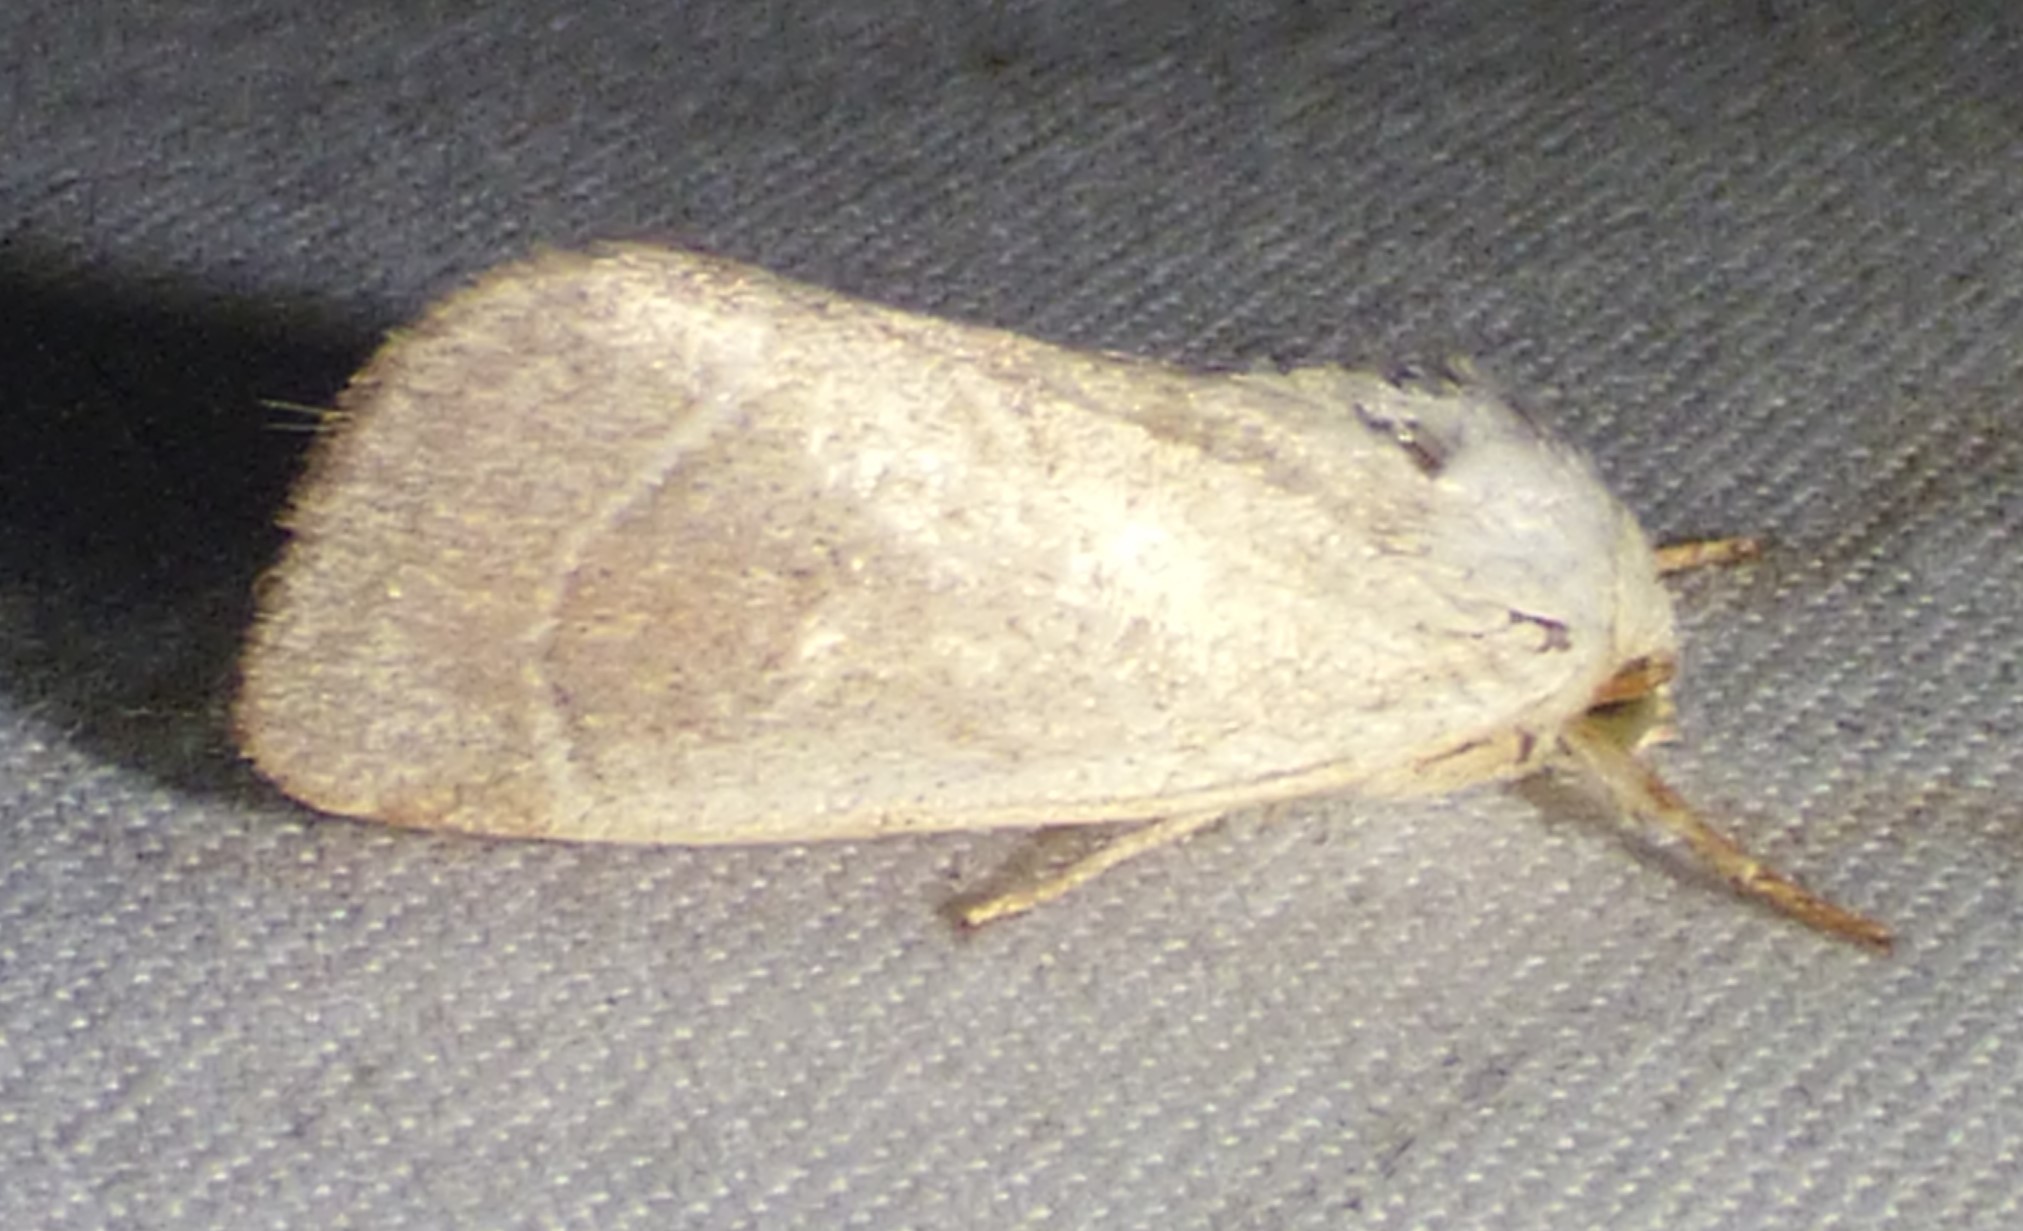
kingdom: Animalia
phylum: Arthropoda
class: Insecta
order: Lepidoptera
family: Noctuidae
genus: Cosmia
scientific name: Cosmia calami
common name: American dun-bar moth
